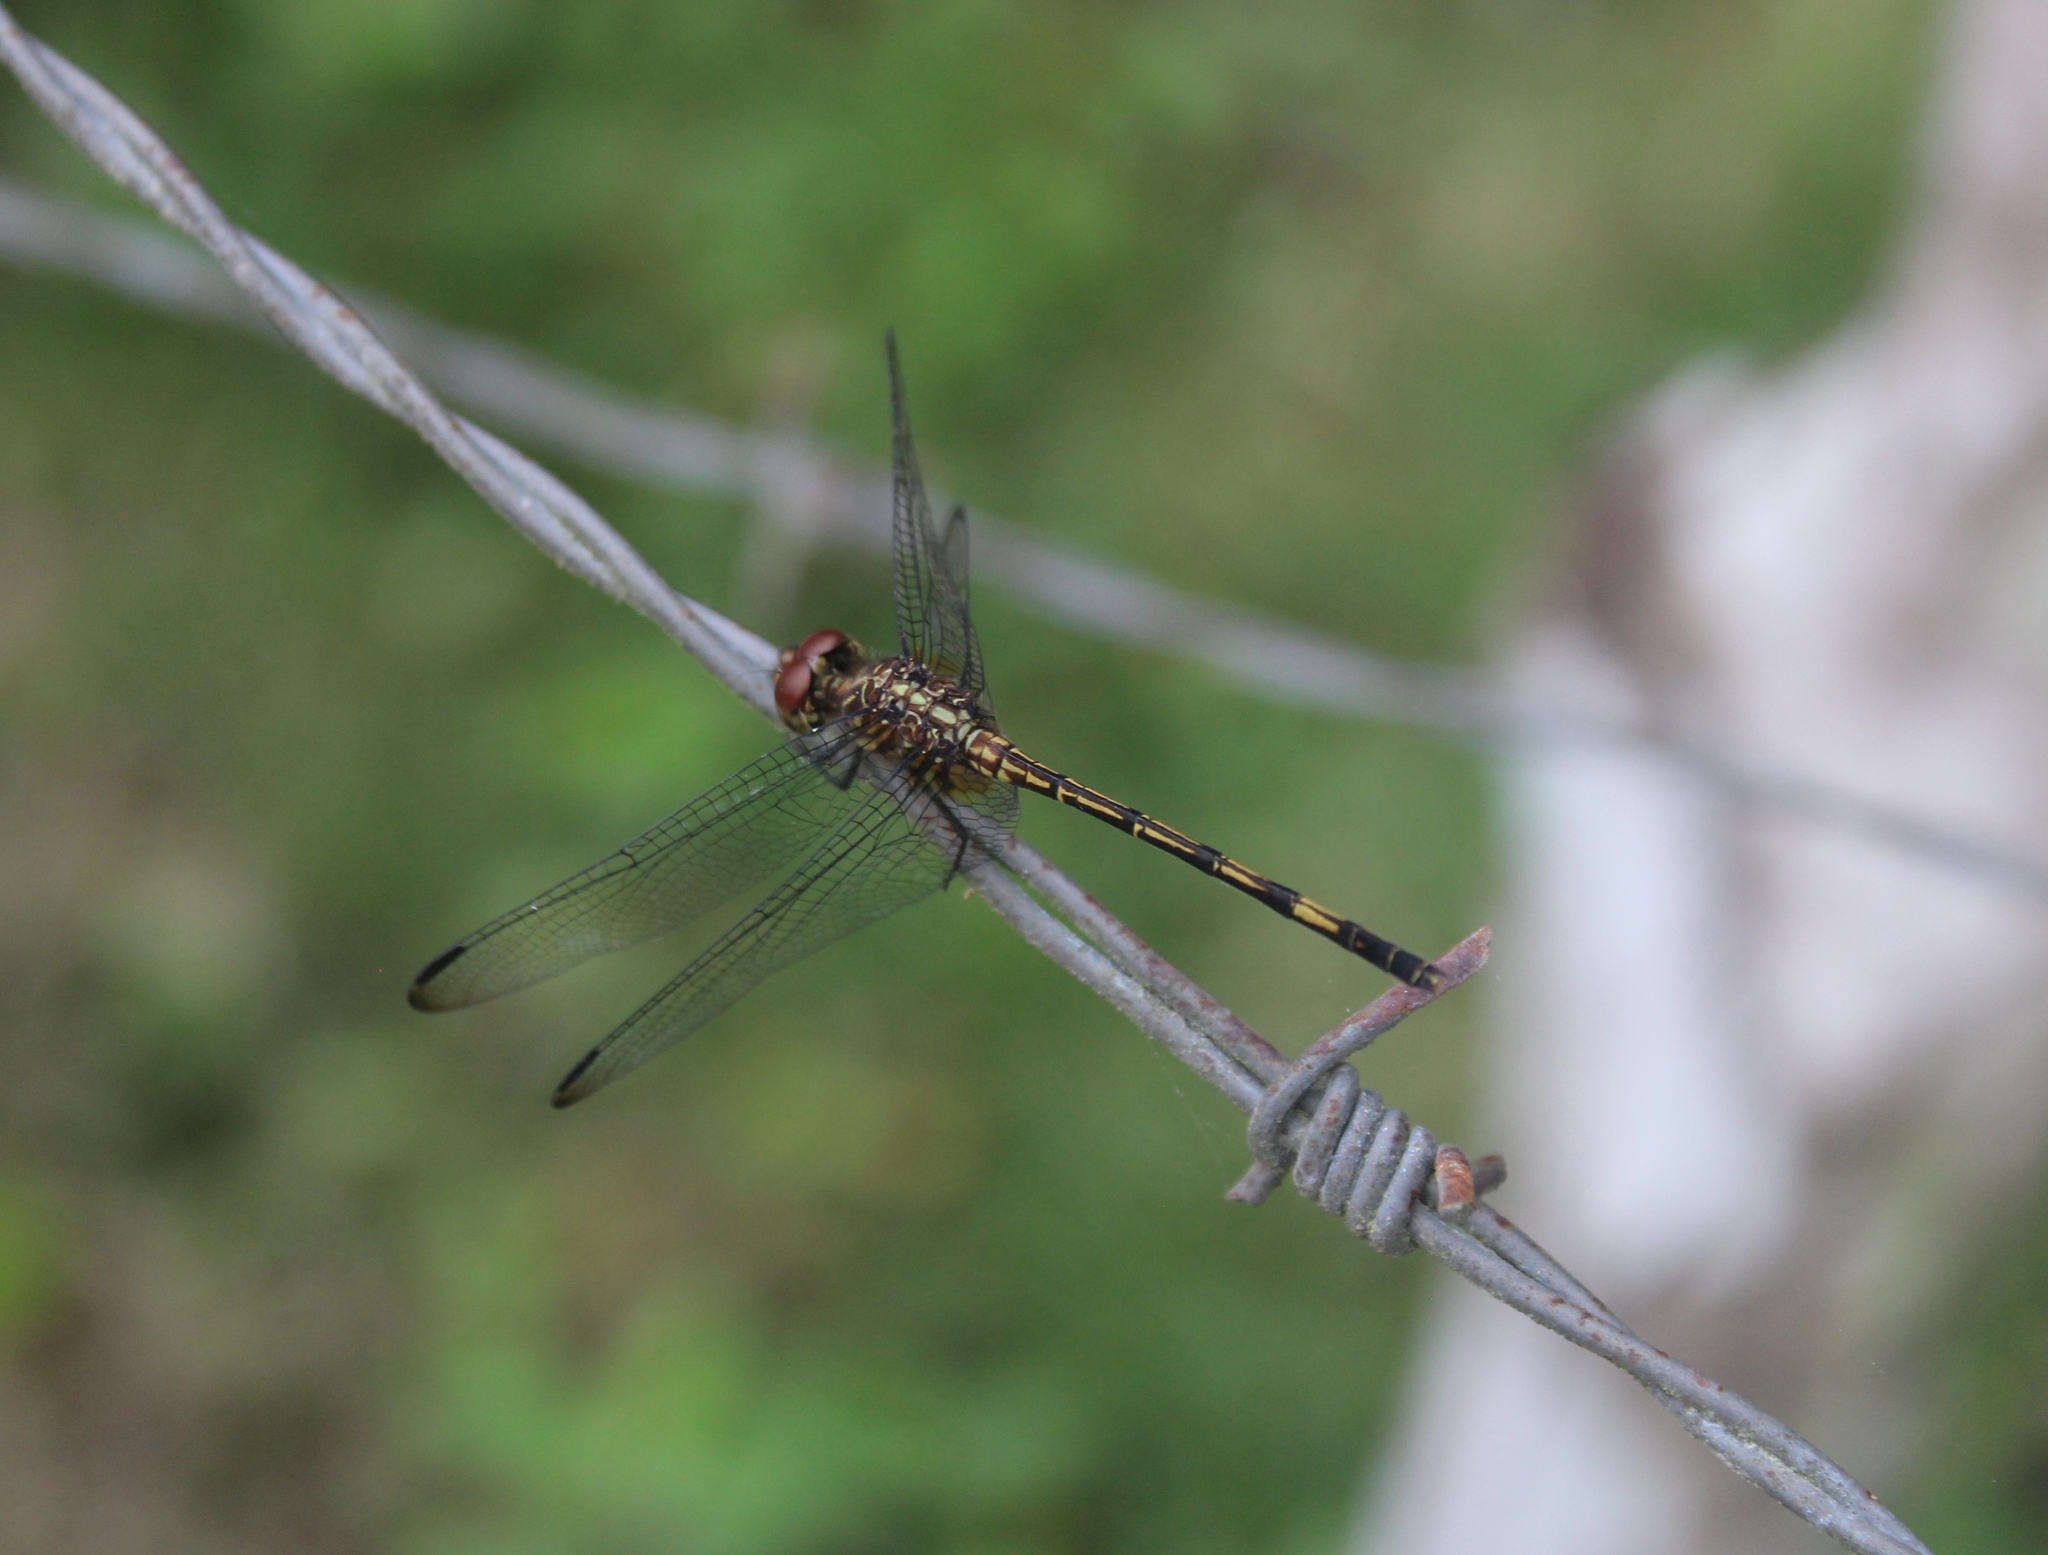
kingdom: Animalia
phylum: Arthropoda
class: Insecta
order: Odonata
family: Libellulidae
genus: Dythemis
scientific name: Dythemis sterilis
